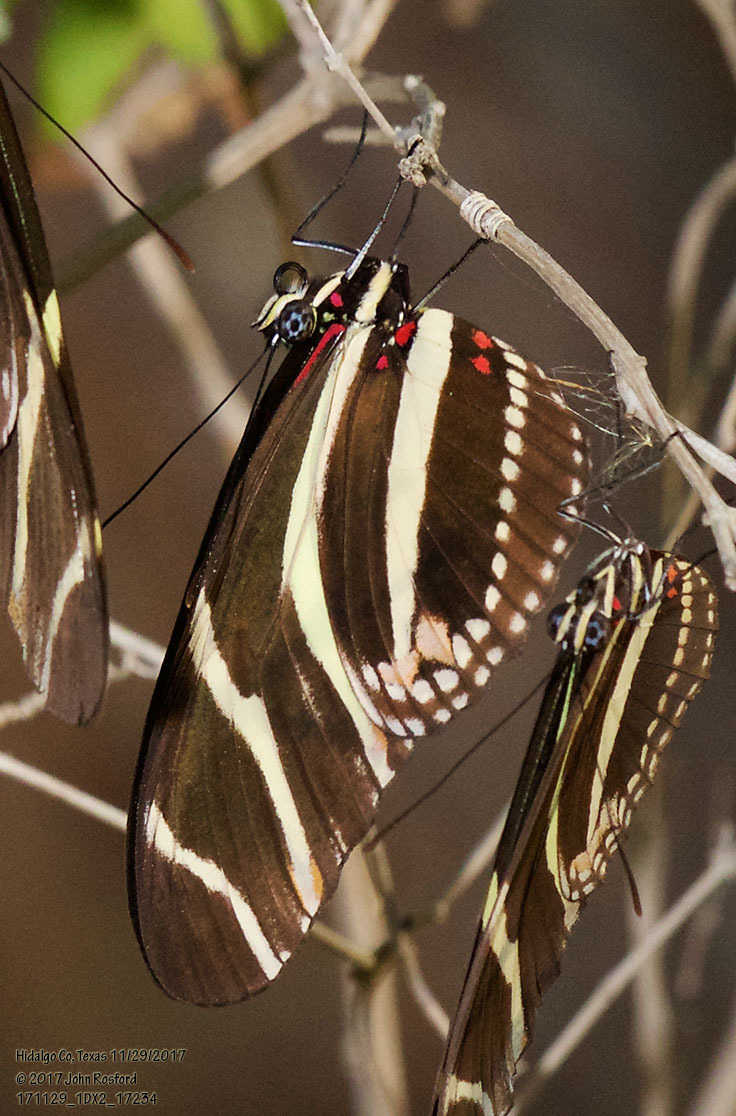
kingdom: Animalia
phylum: Arthropoda
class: Insecta
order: Lepidoptera
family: Nymphalidae
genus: Heliconius
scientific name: Heliconius charithonia
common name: Zebra long wing
